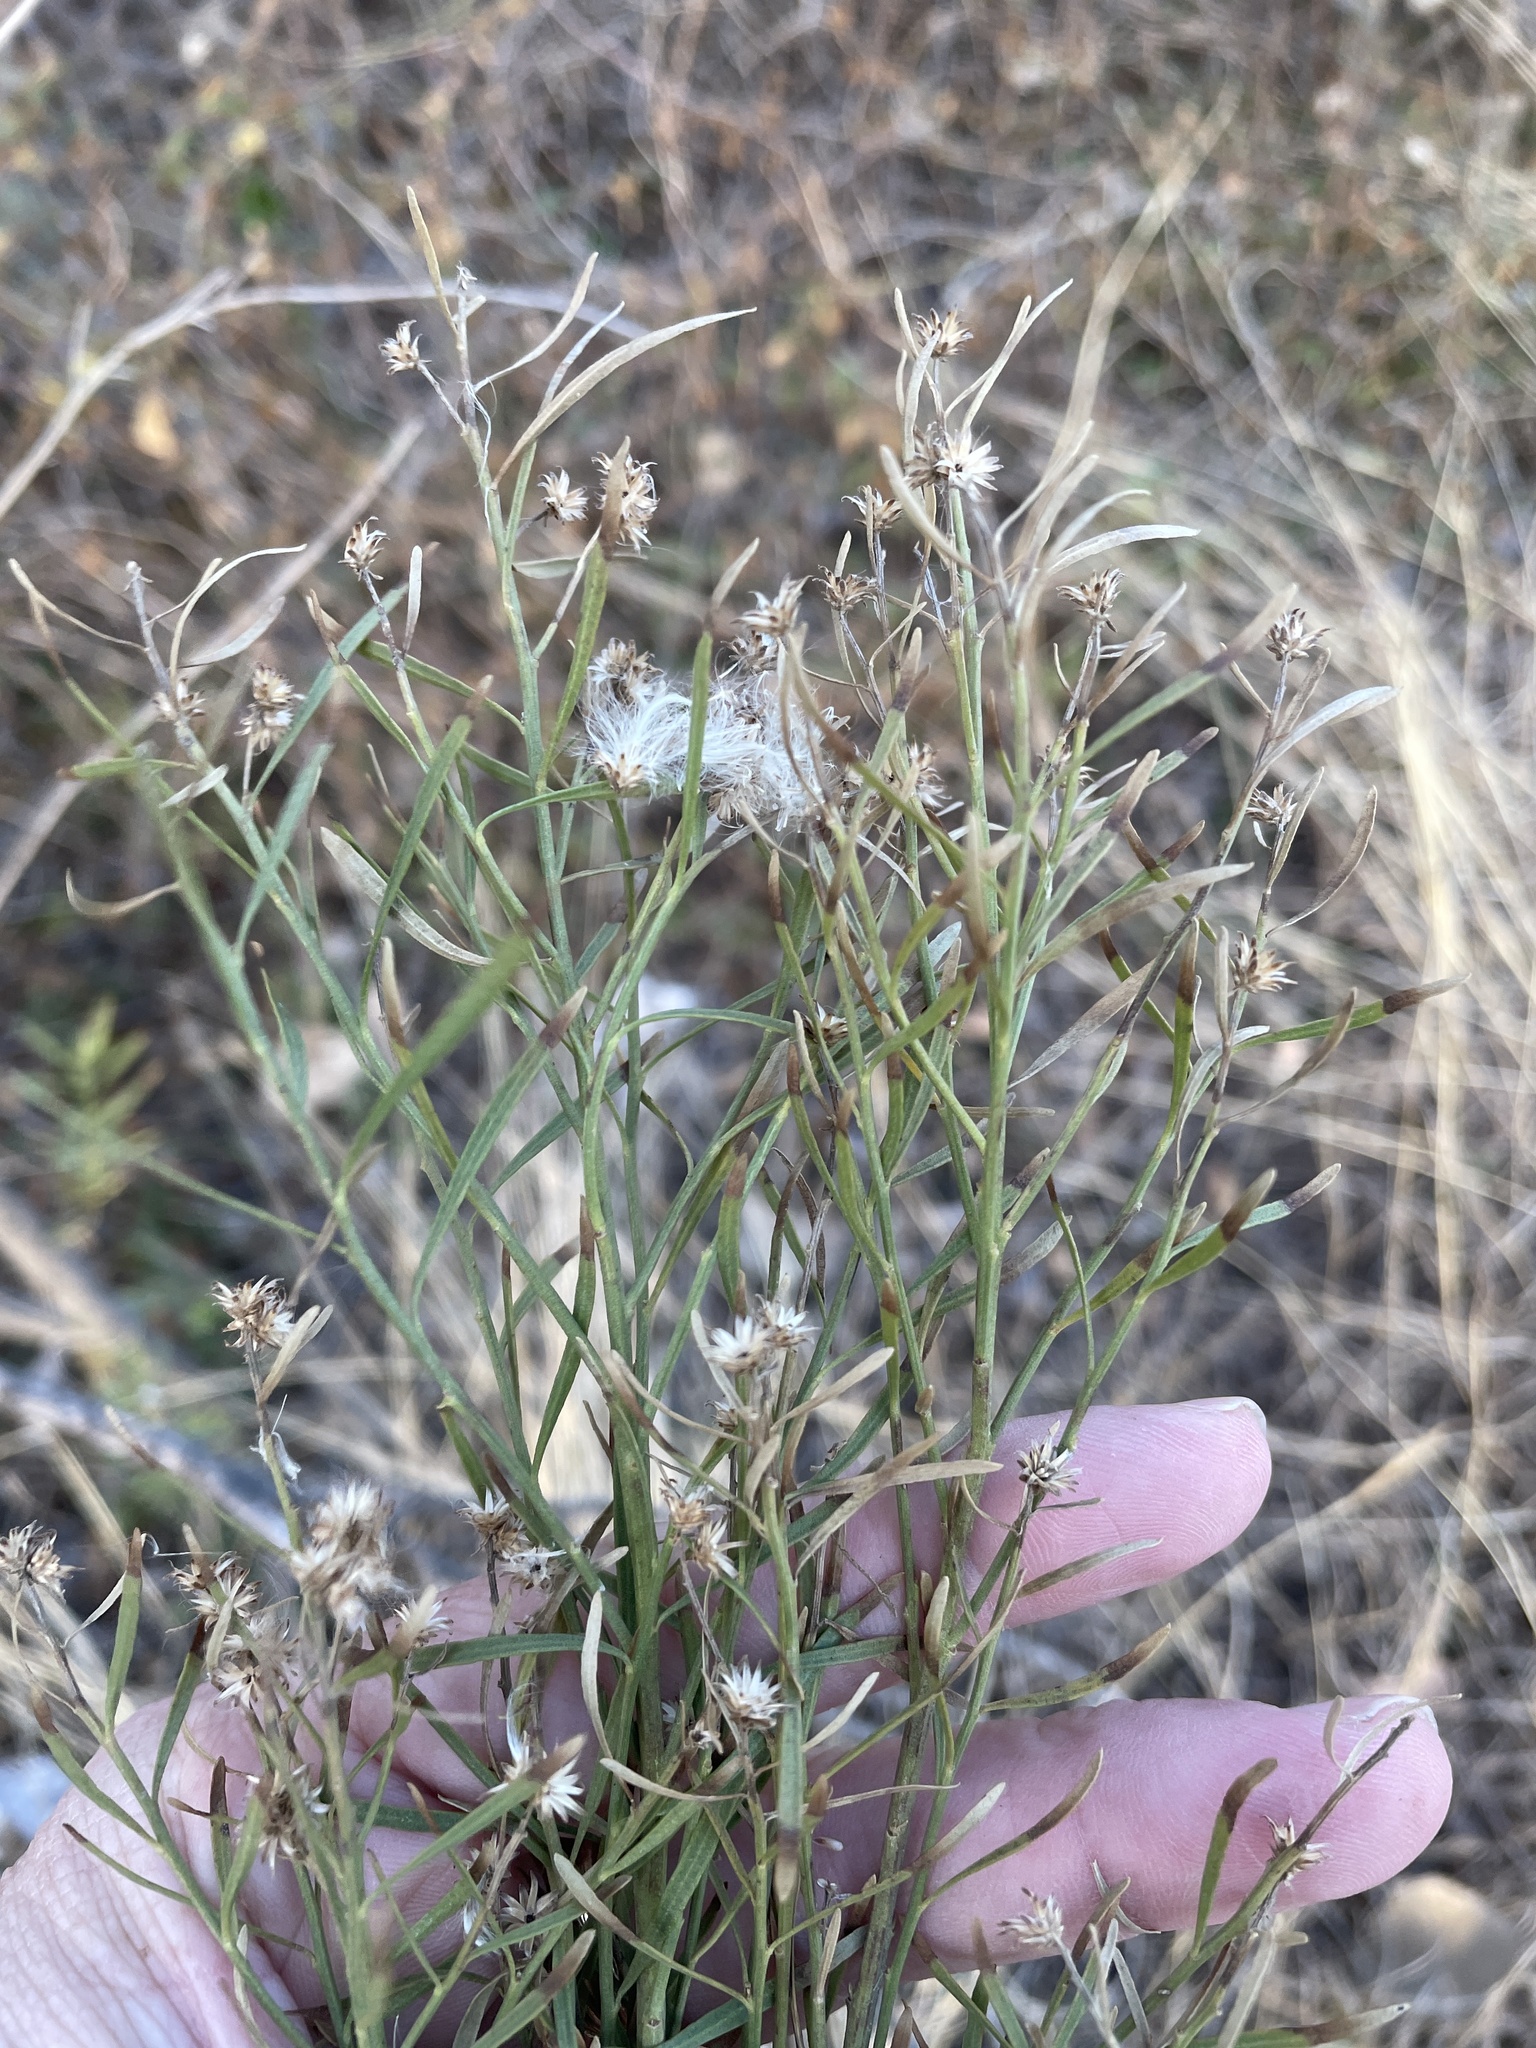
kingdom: Plantae
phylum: Tracheophyta
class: Magnoliopsida
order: Asterales
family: Asteraceae
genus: Baccharis
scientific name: Baccharis neglecta
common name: Roosevelt-weed
